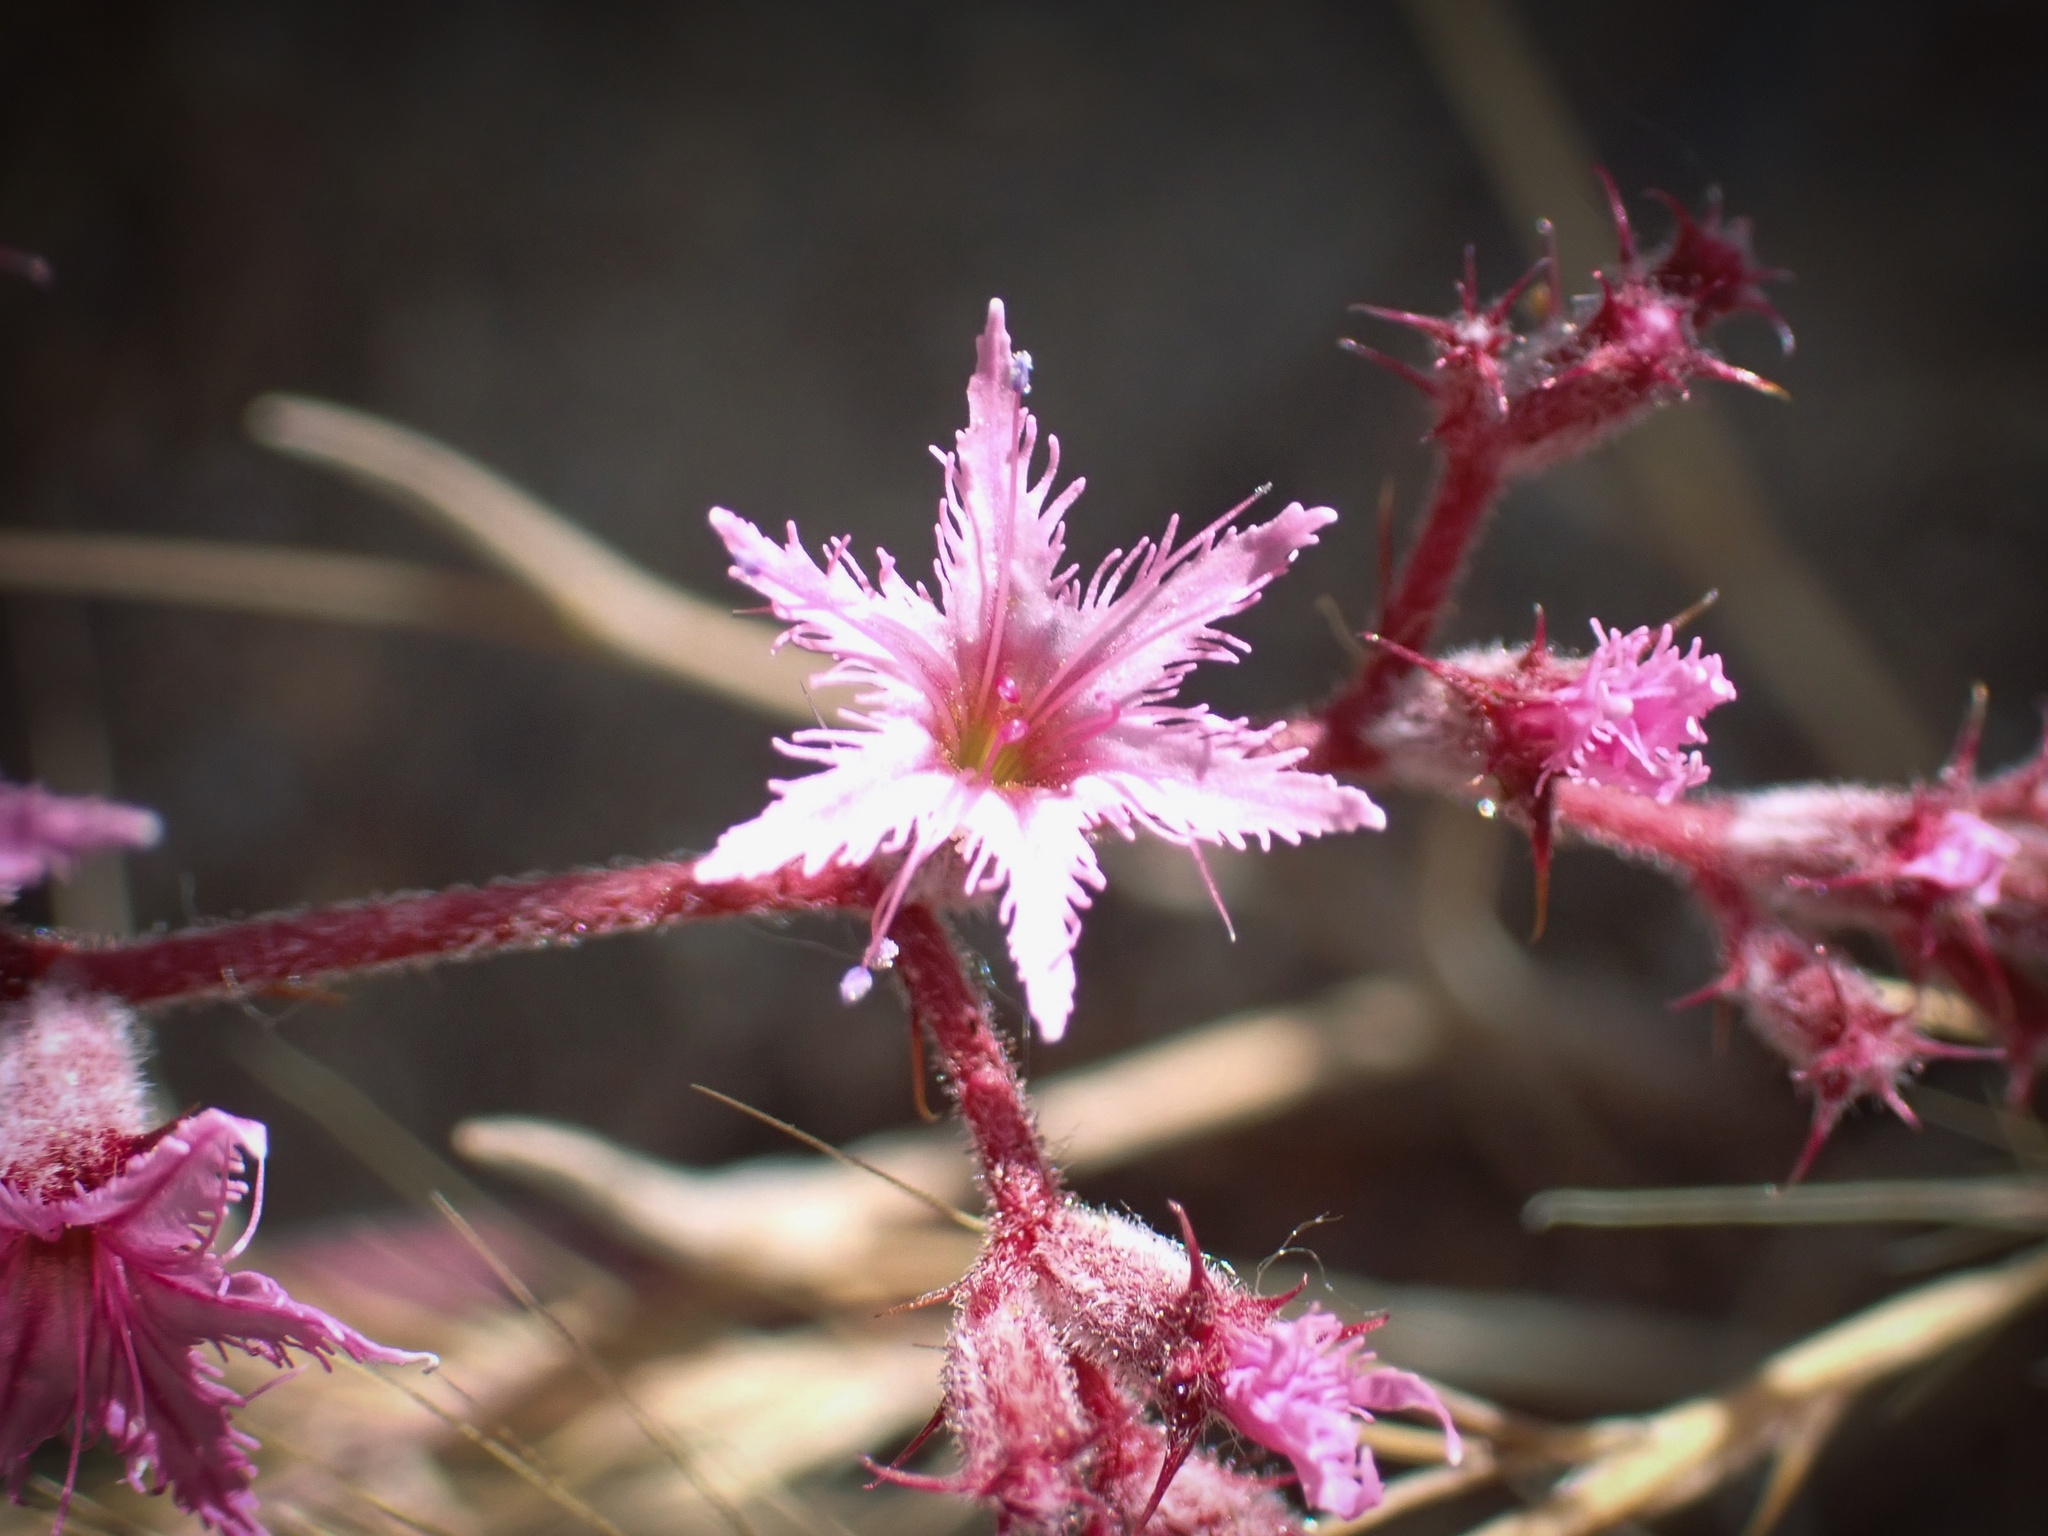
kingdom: Plantae
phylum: Tracheophyta
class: Magnoliopsida
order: Caryophyllales
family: Polygonaceae
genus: Chorizanthe
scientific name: Chorizanthe fimbriata
